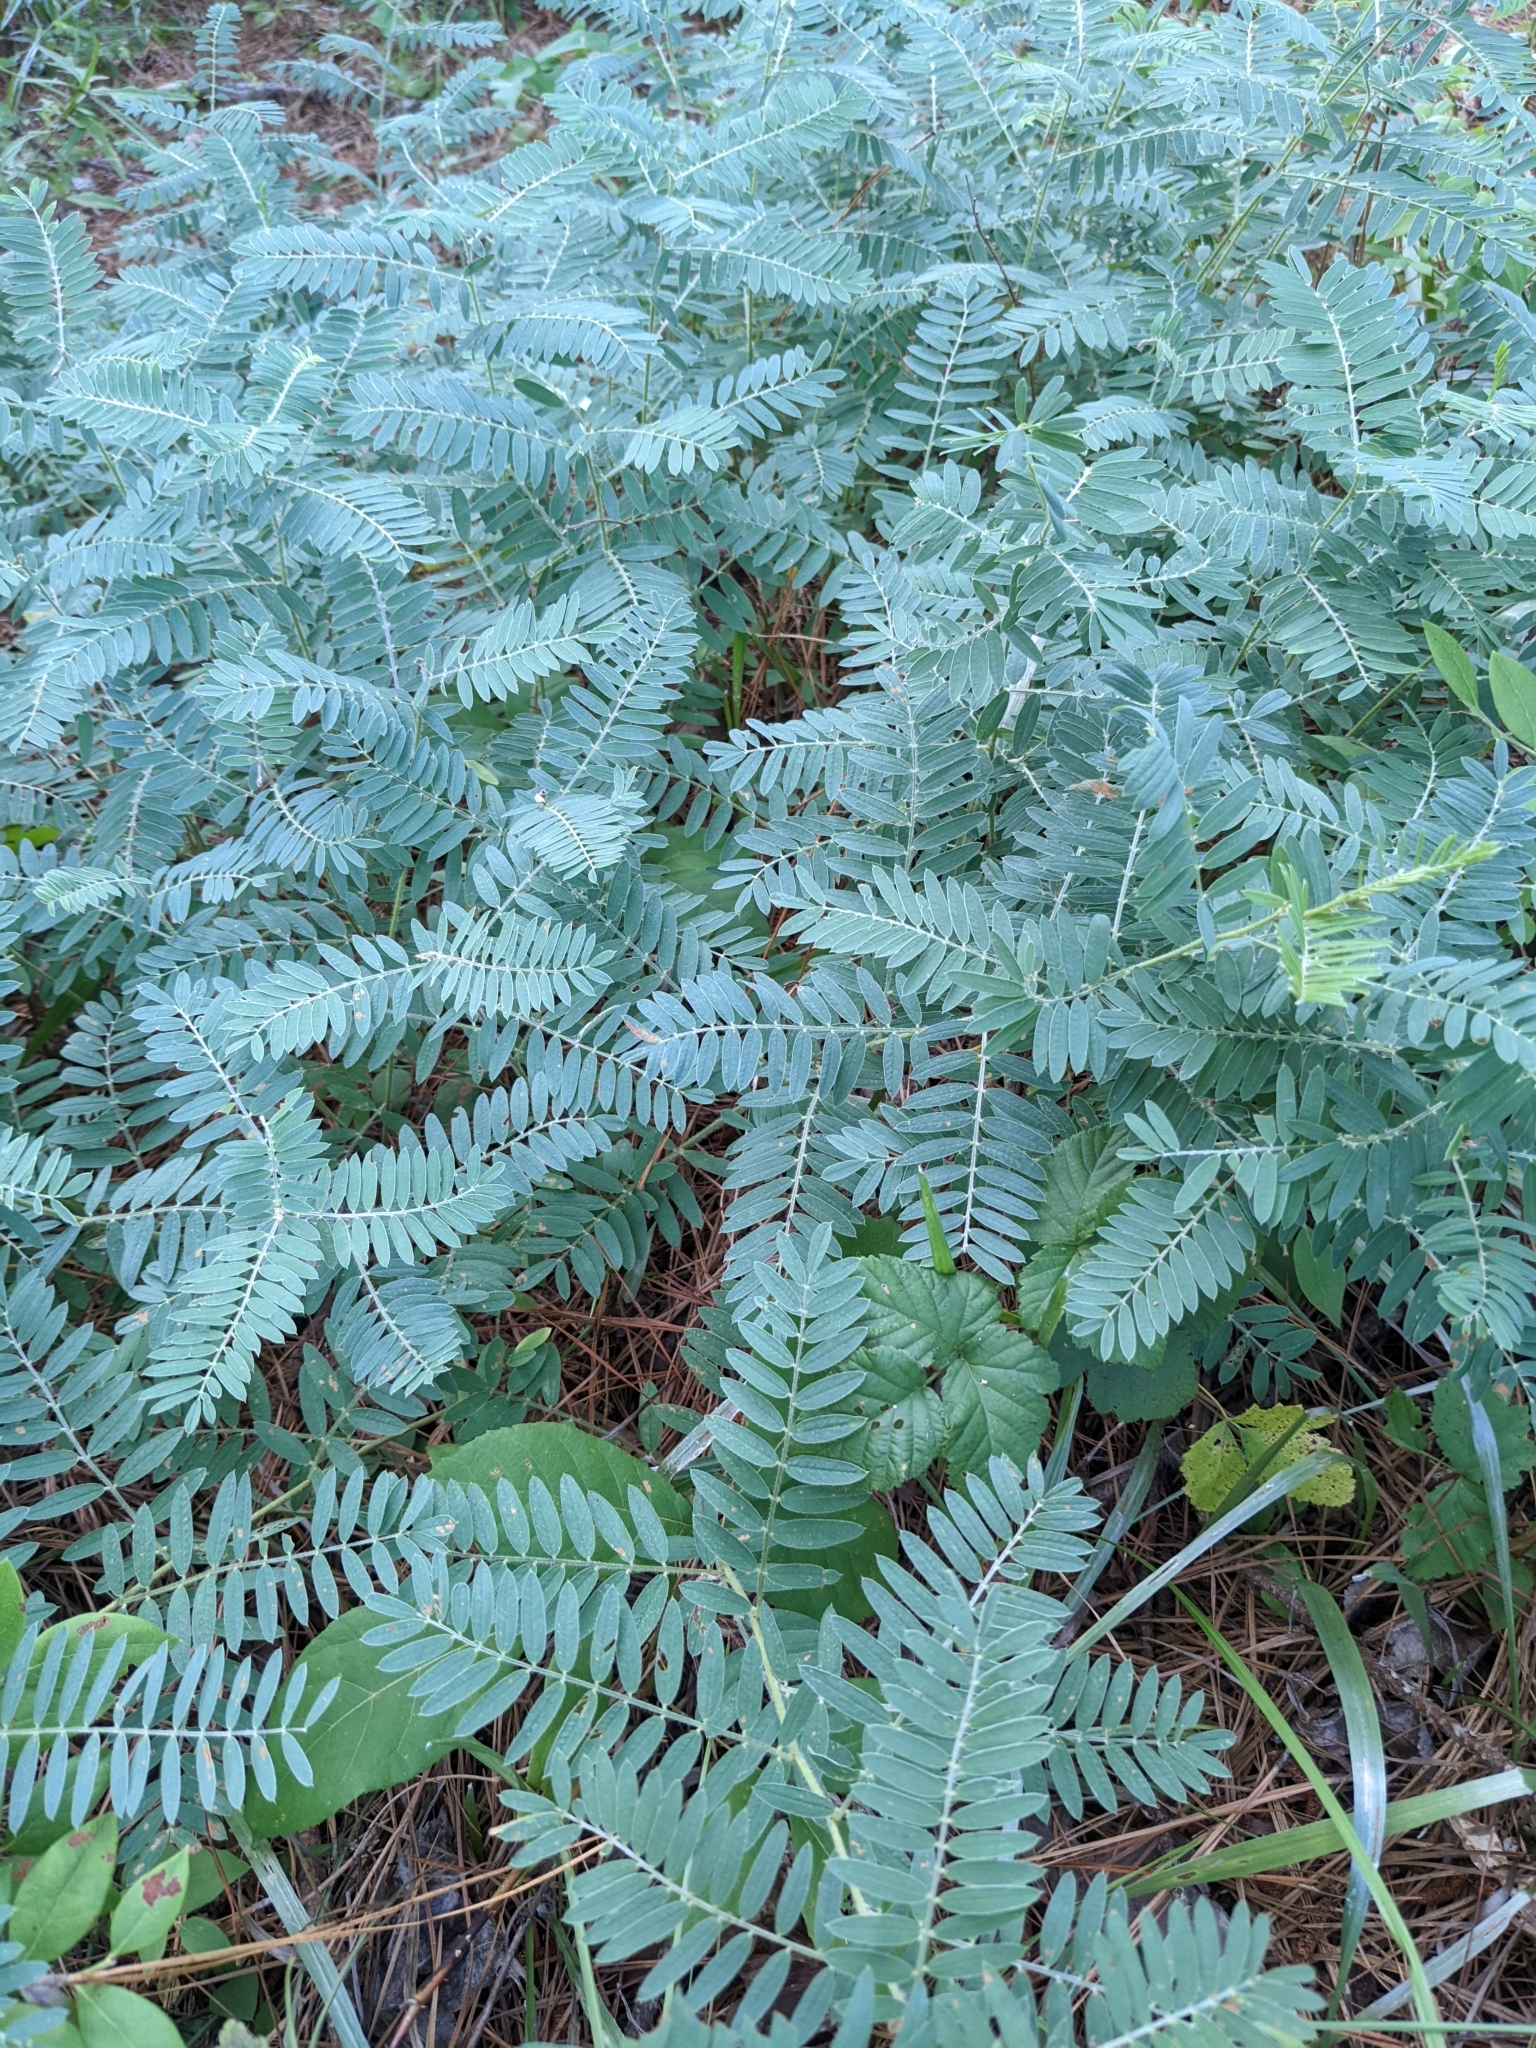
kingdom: Plantae
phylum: Tracheophyta
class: Magnoliopsida
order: Fabales
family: Fabaceae
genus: Tephrosia
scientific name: Tephrosia virginiana
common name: Rabbit-pea
